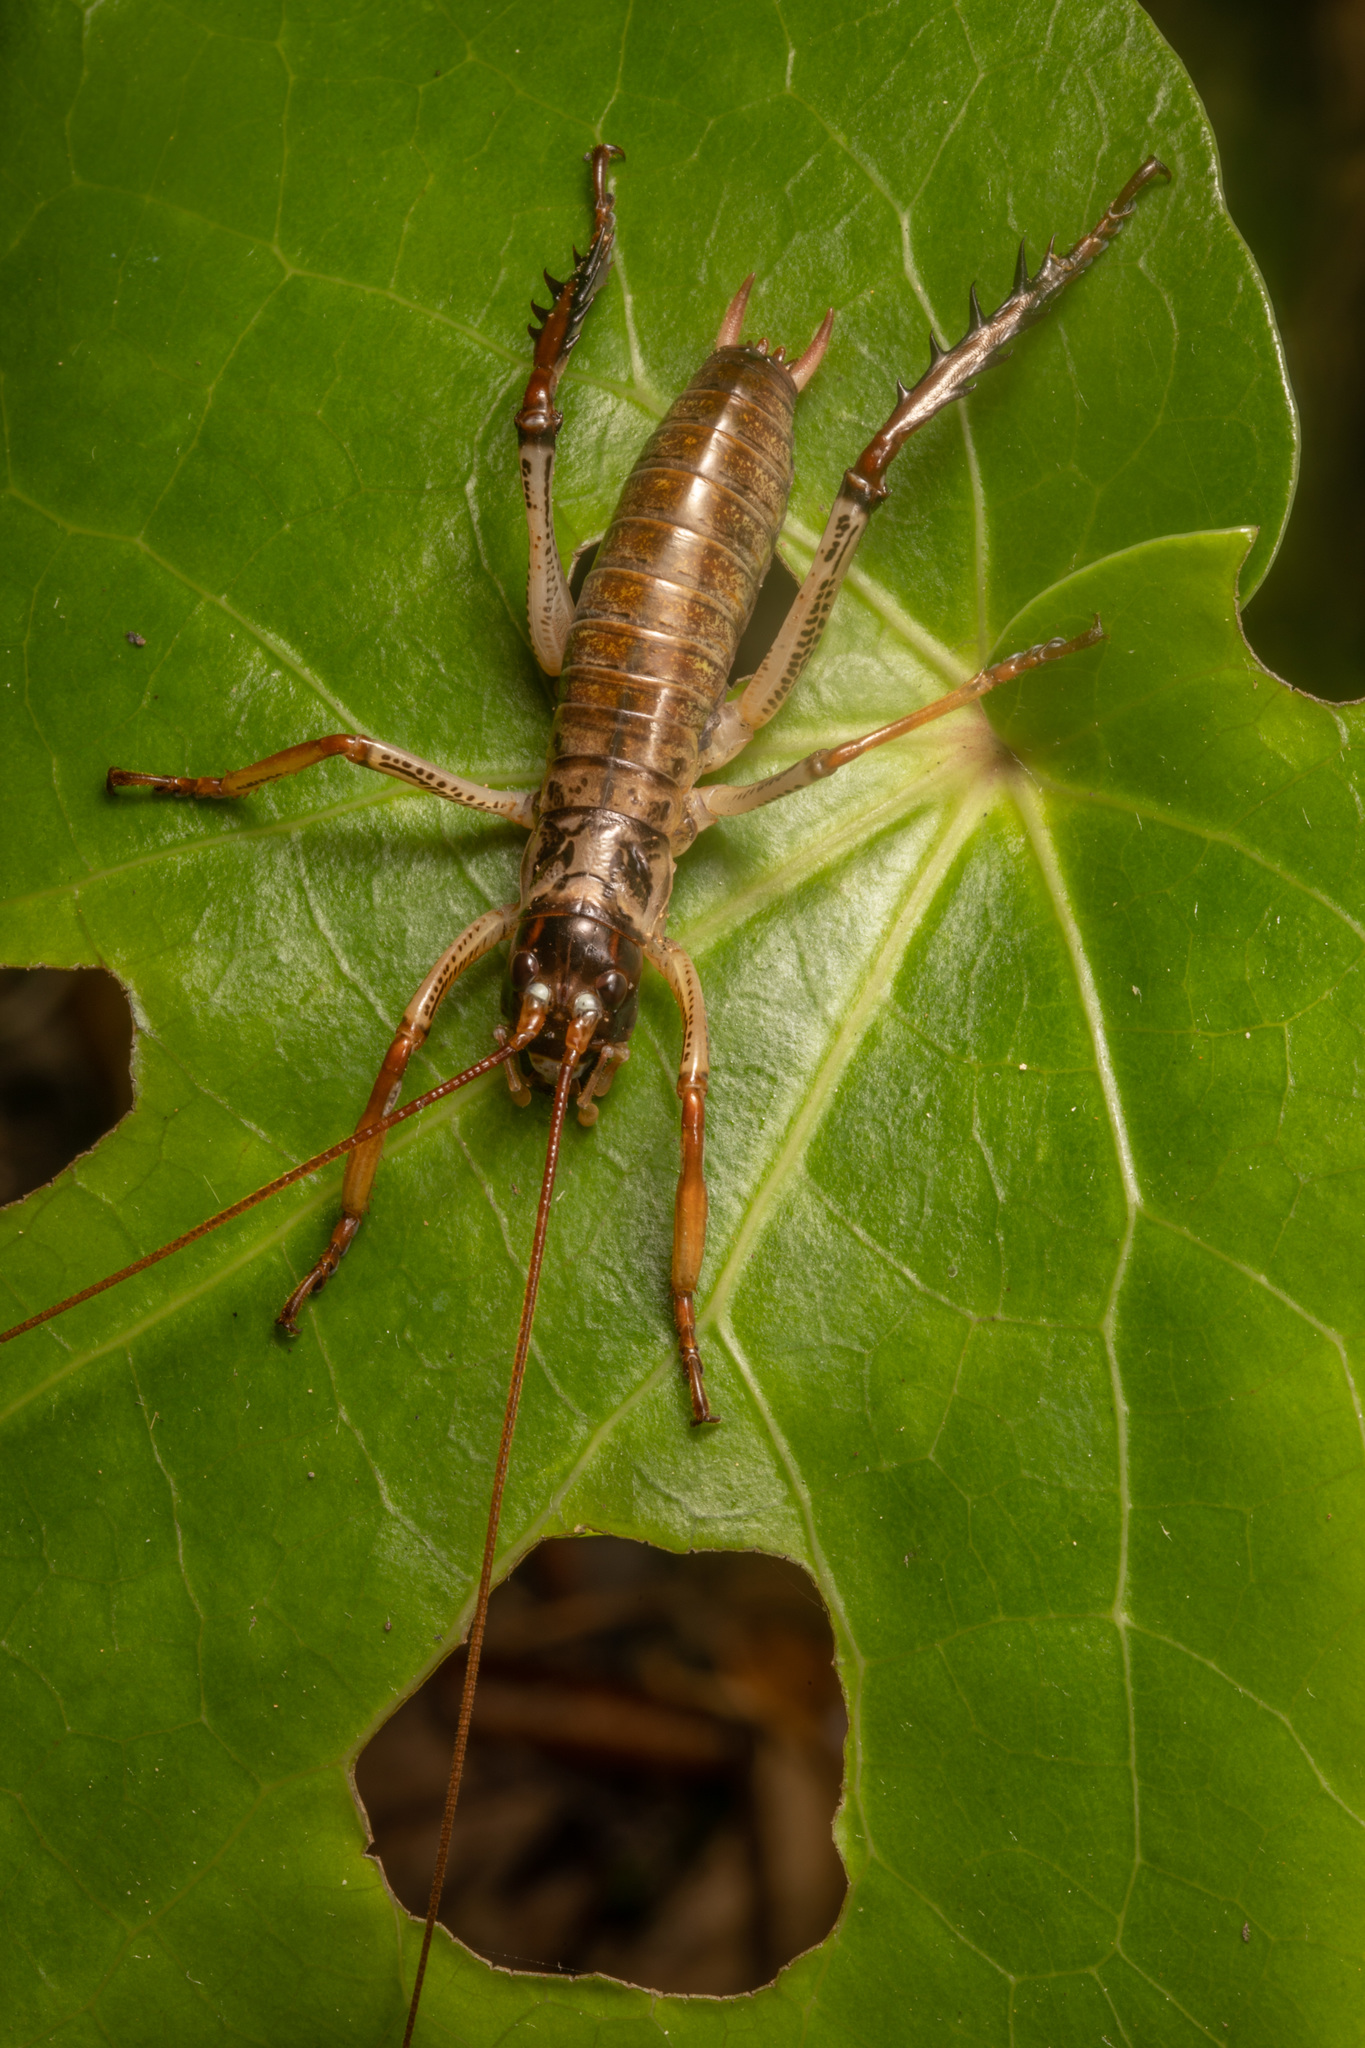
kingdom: Animalia
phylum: Arthropoda
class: Insecta
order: Orthoptera
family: Anostostomatidae
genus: Hemideina
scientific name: Hemideina thoracica
